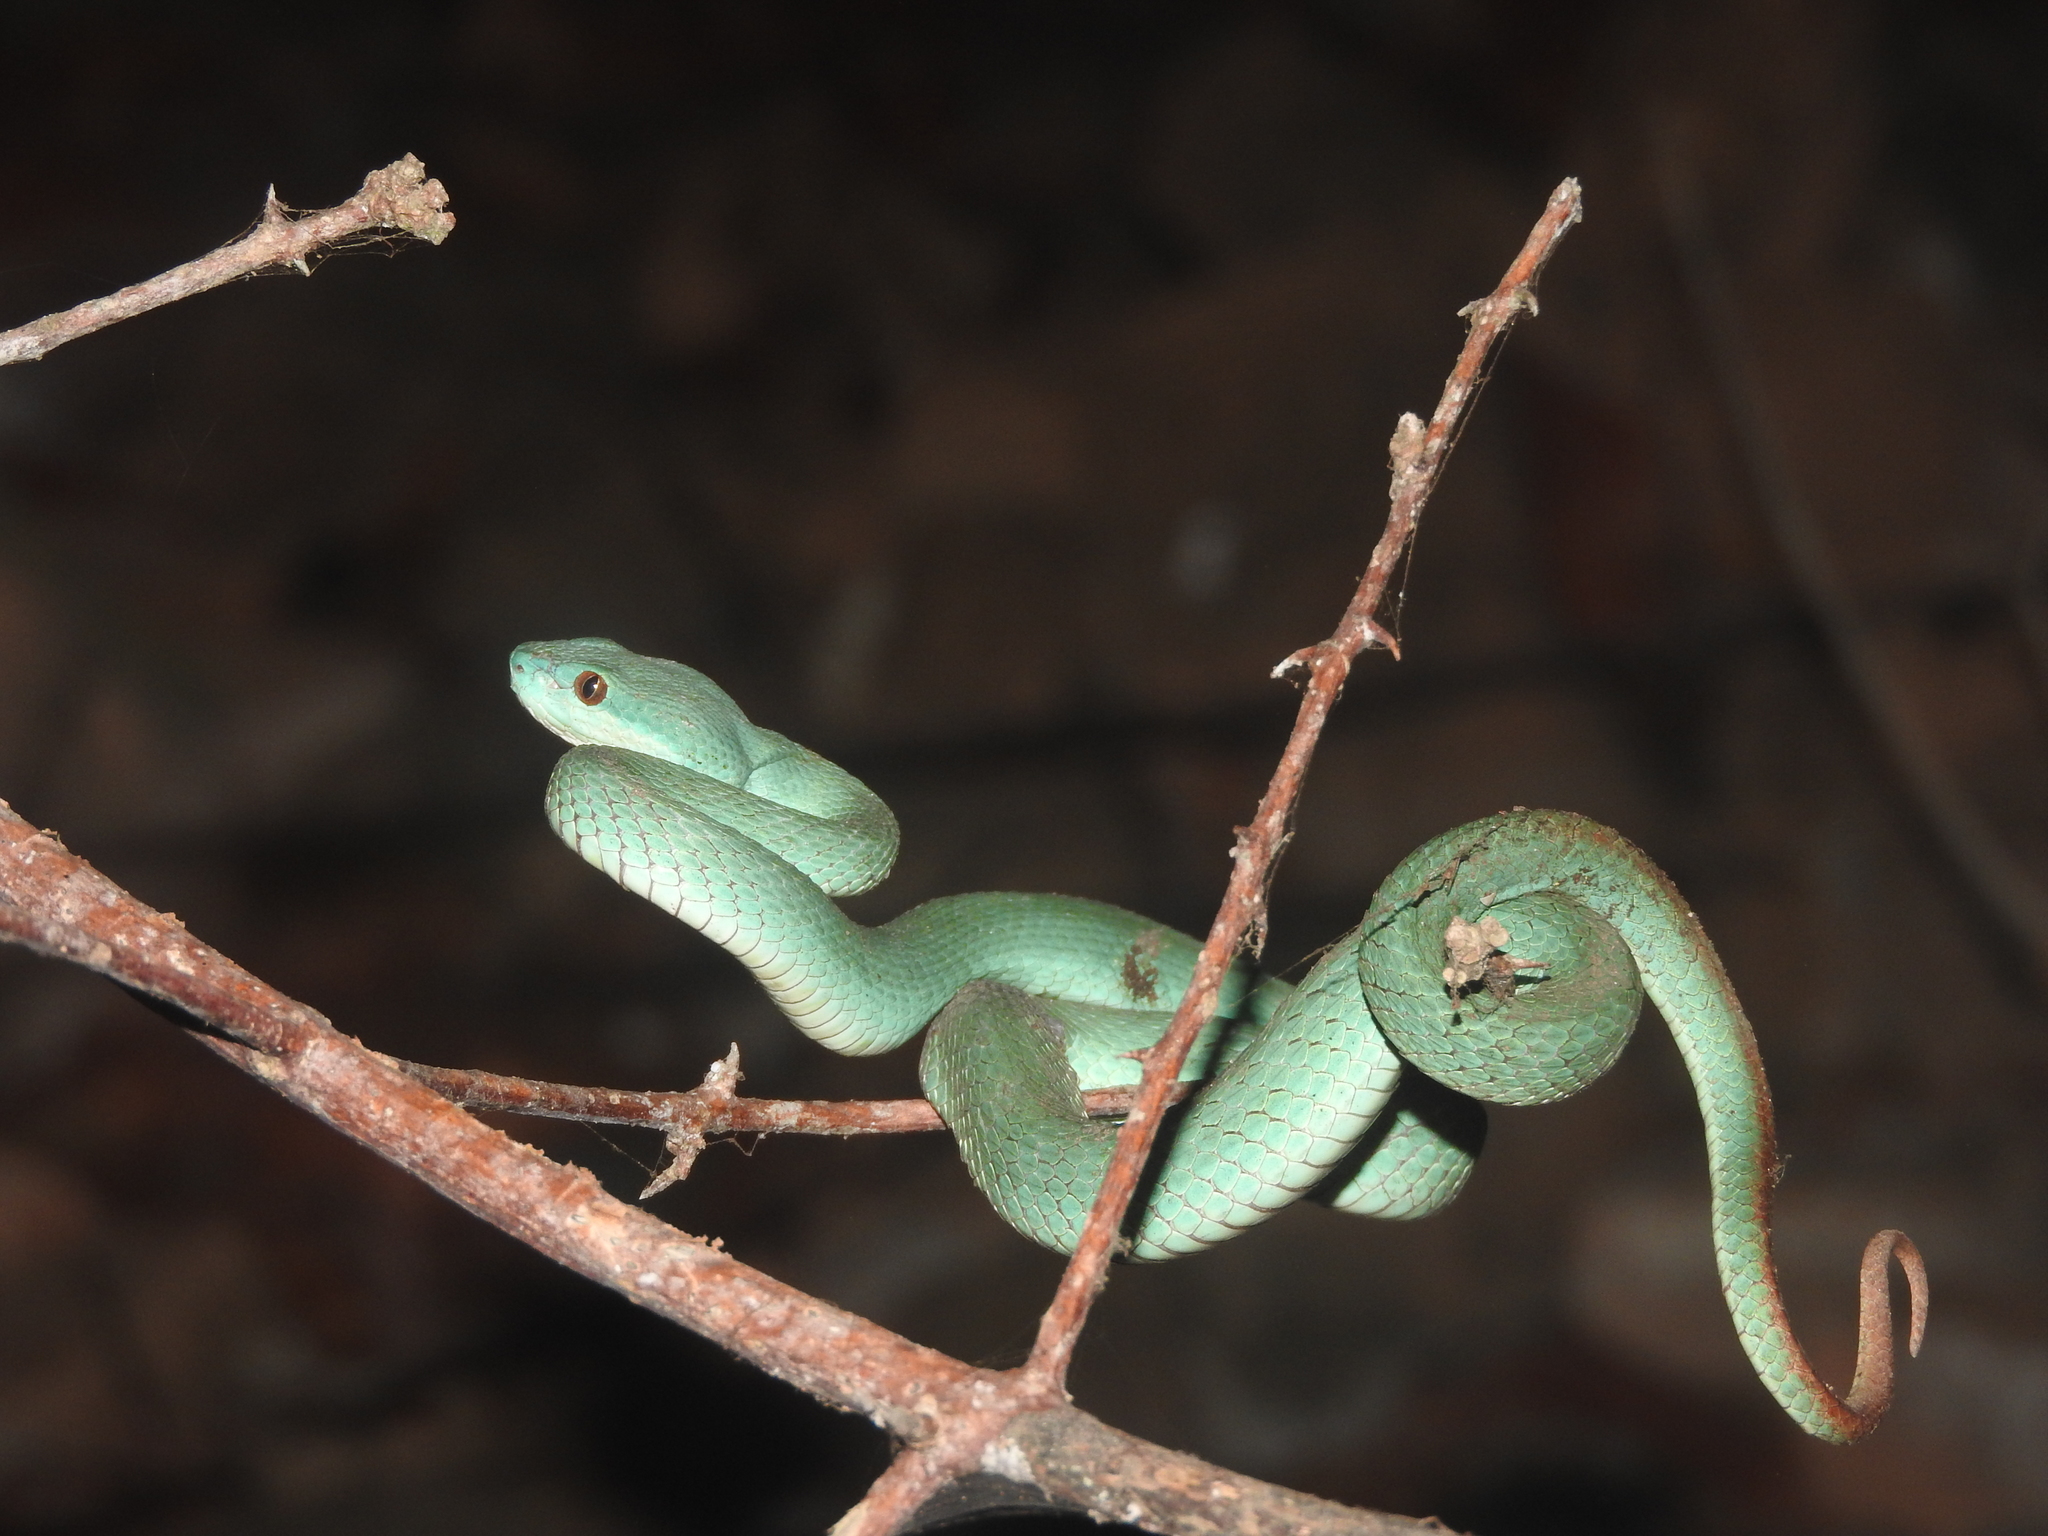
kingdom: Animalia
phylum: Chordata
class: Squamata
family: Viperidae
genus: Trimeresurus
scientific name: Trimeresurus insularis
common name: White-lipped island pitviper
